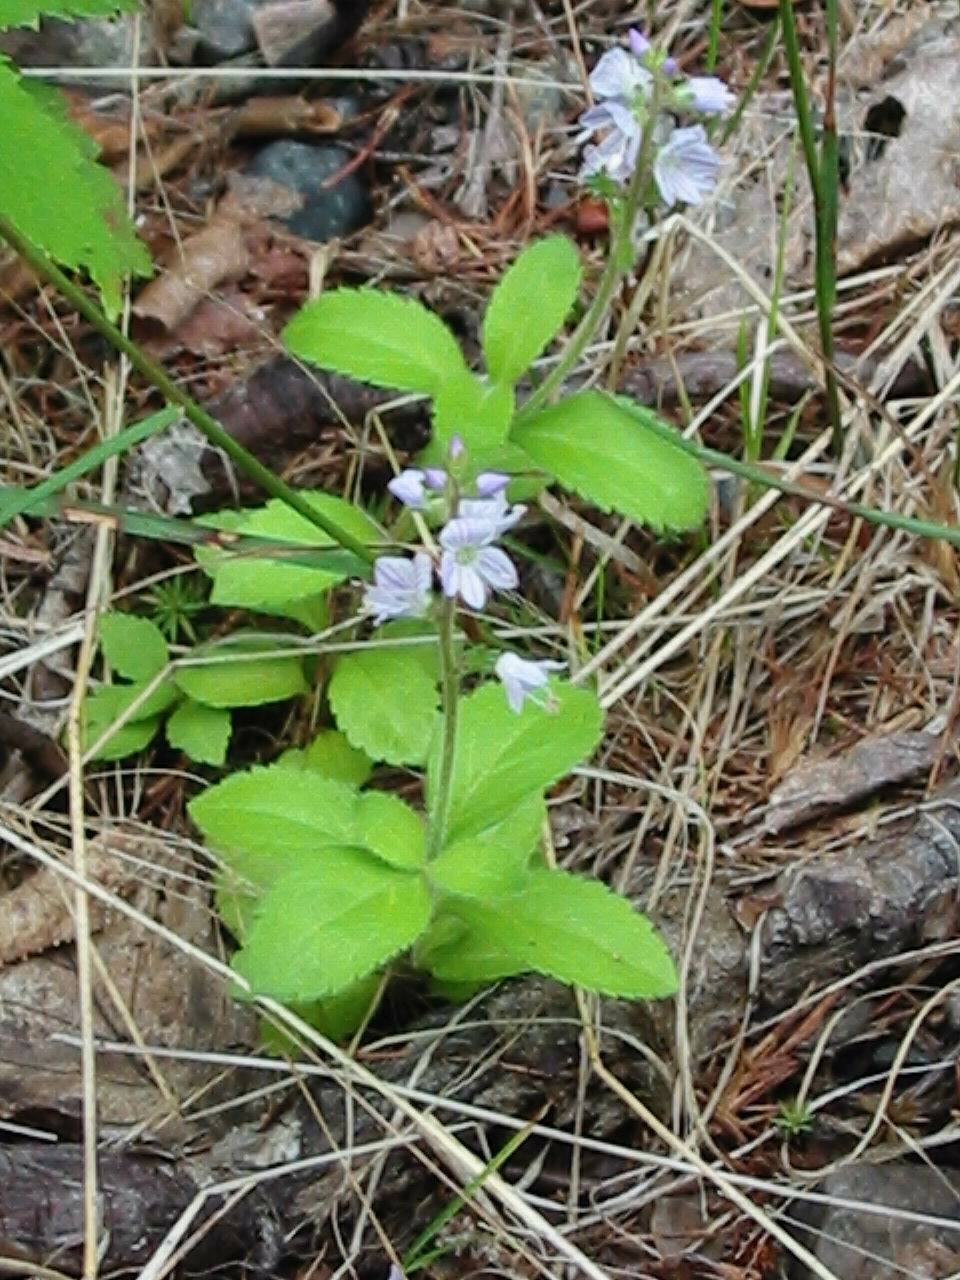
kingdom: Plantae
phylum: Tracheophyta
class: Magnoliopsida
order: Lamiales
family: Plantaginaceae
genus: Veronica
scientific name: Veronica officinalis
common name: Common speedwell
